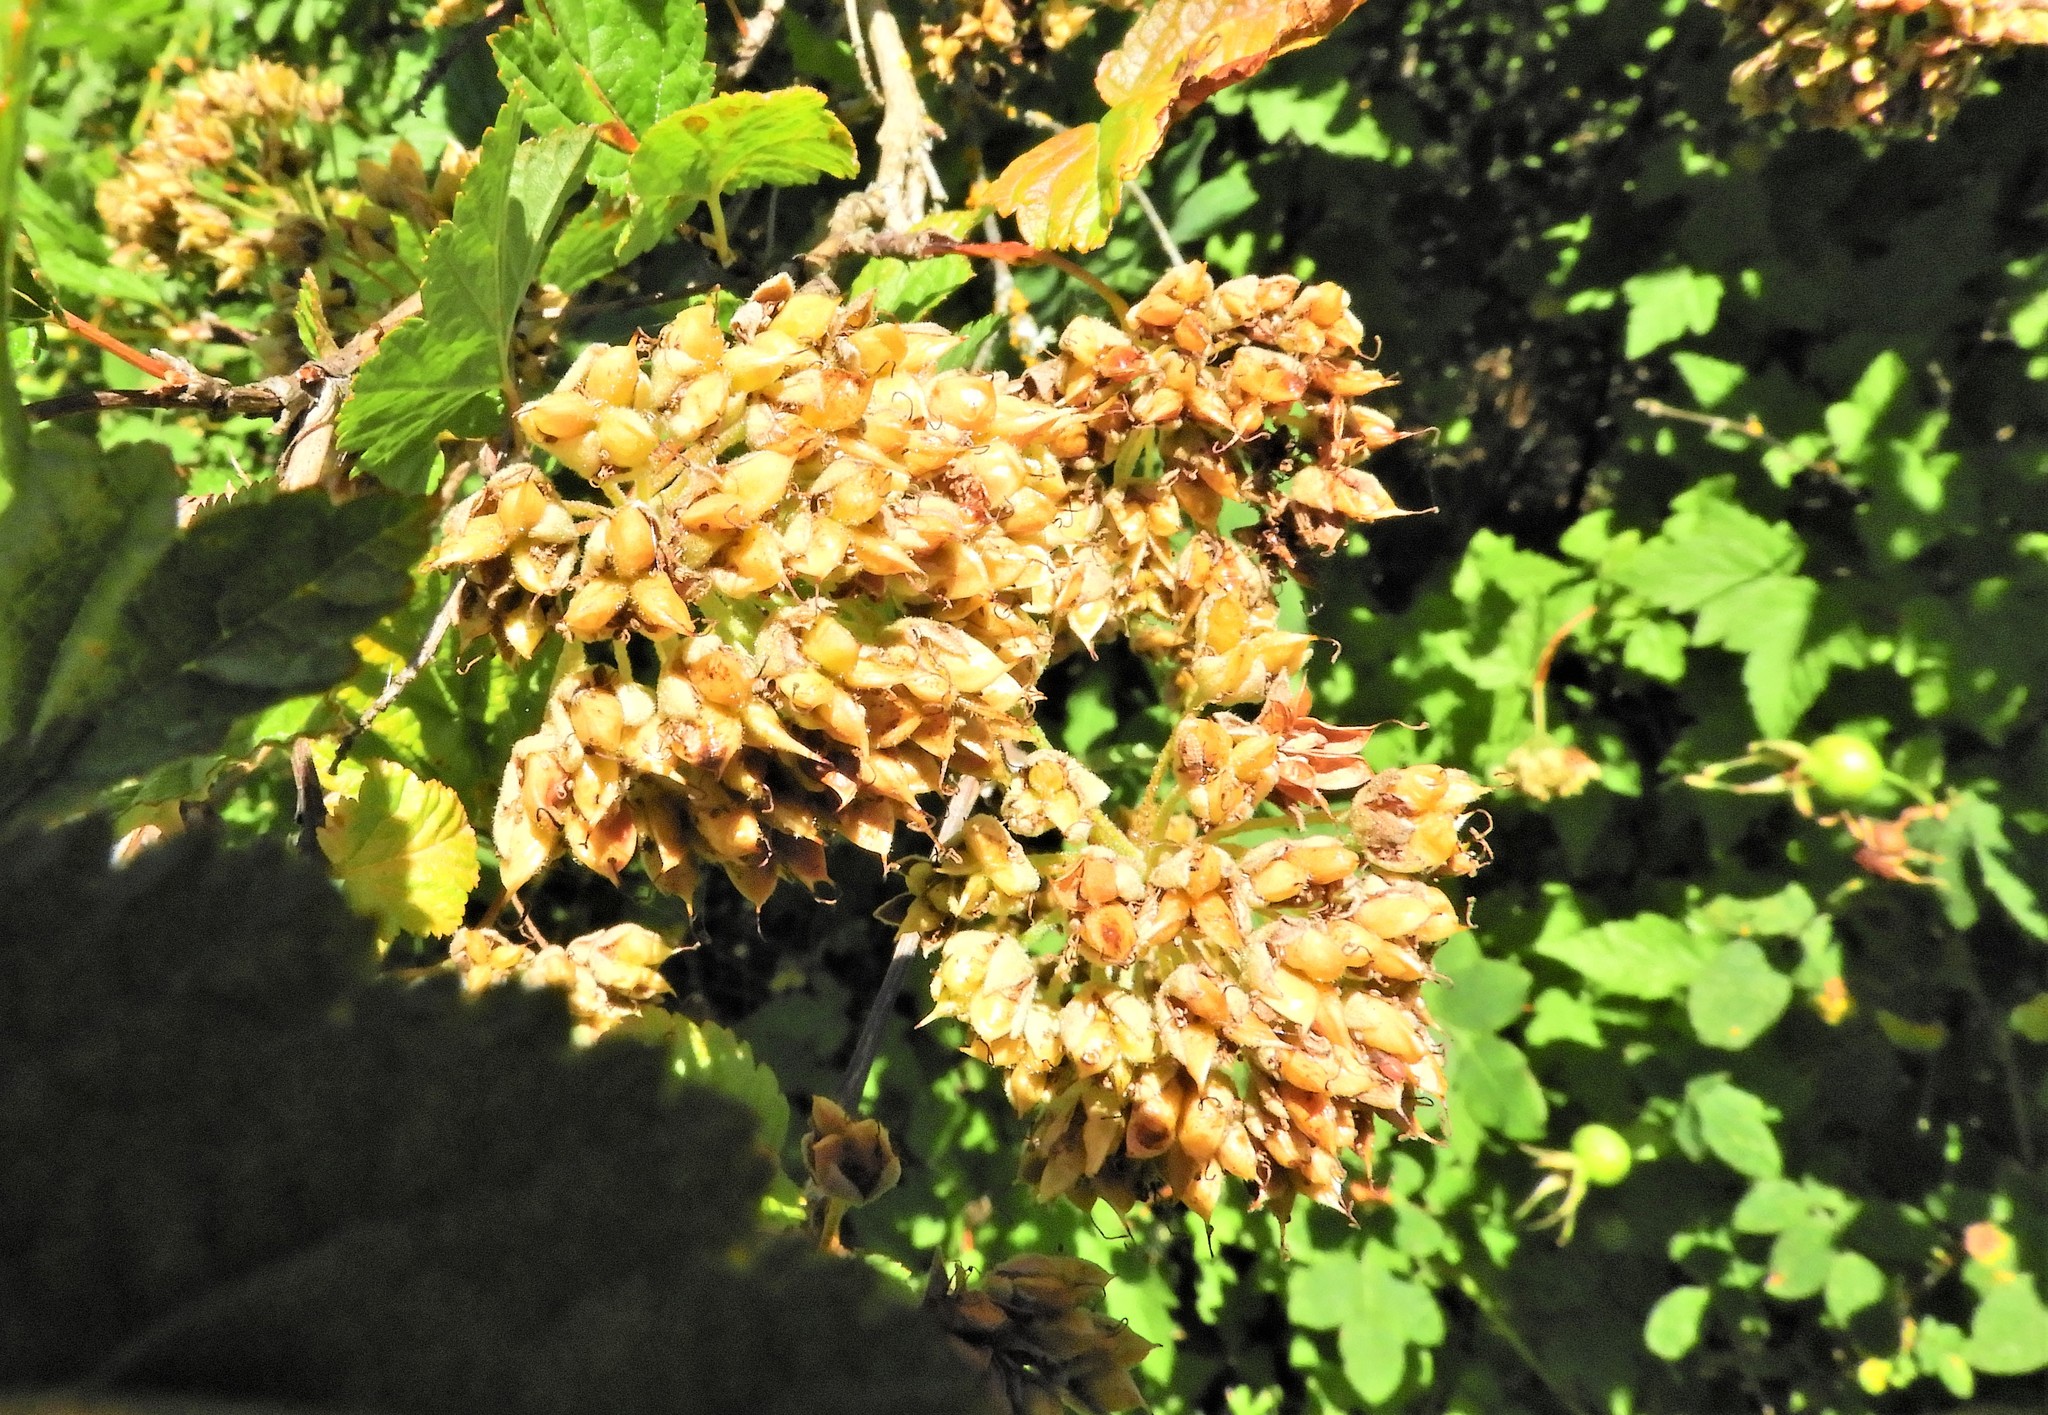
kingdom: Plantae
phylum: Tracheophyta
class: Magnoliopsida
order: Rosales
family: Rosaceae
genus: Physocarpus
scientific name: Physocarpus capitatus
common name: Pacific ninebark
